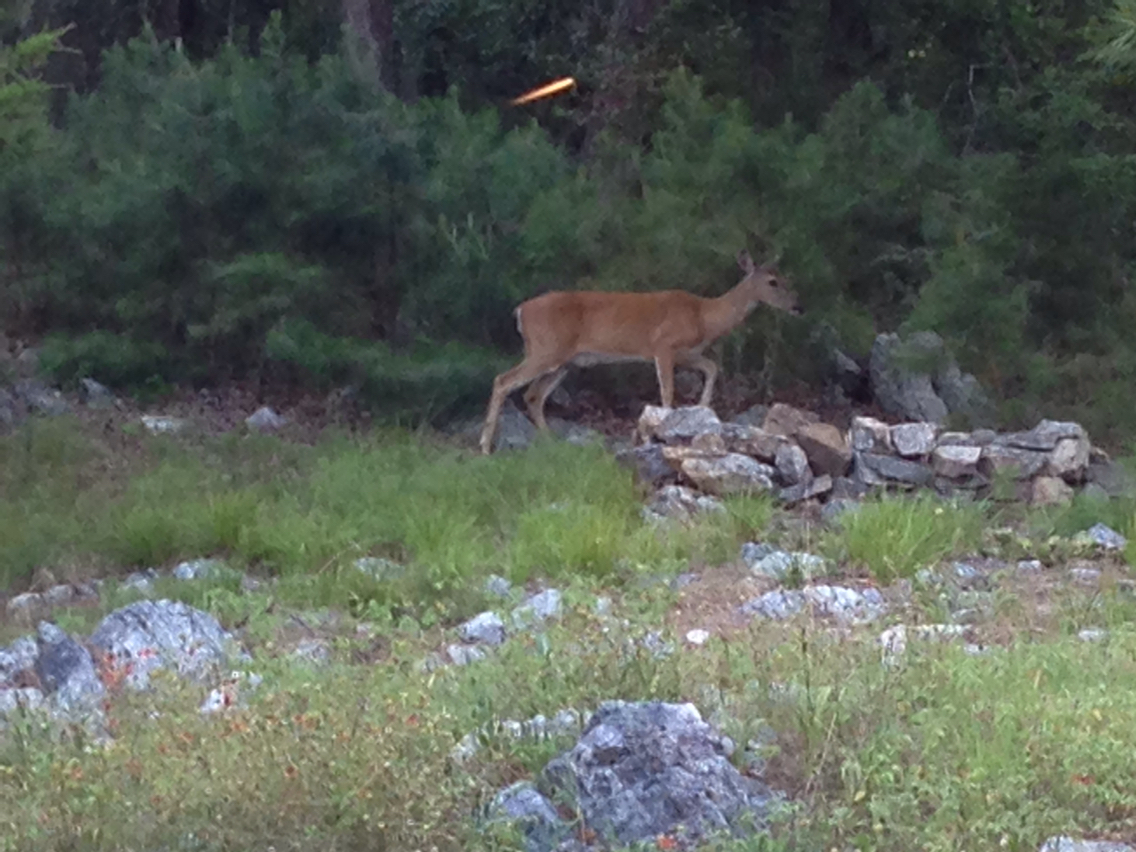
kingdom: Animalia
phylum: Chordata
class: Mammalia
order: Artiodactyla
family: Cervidae
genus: Odocoileus
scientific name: Odocoileus virginianus
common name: White-tailed deer
